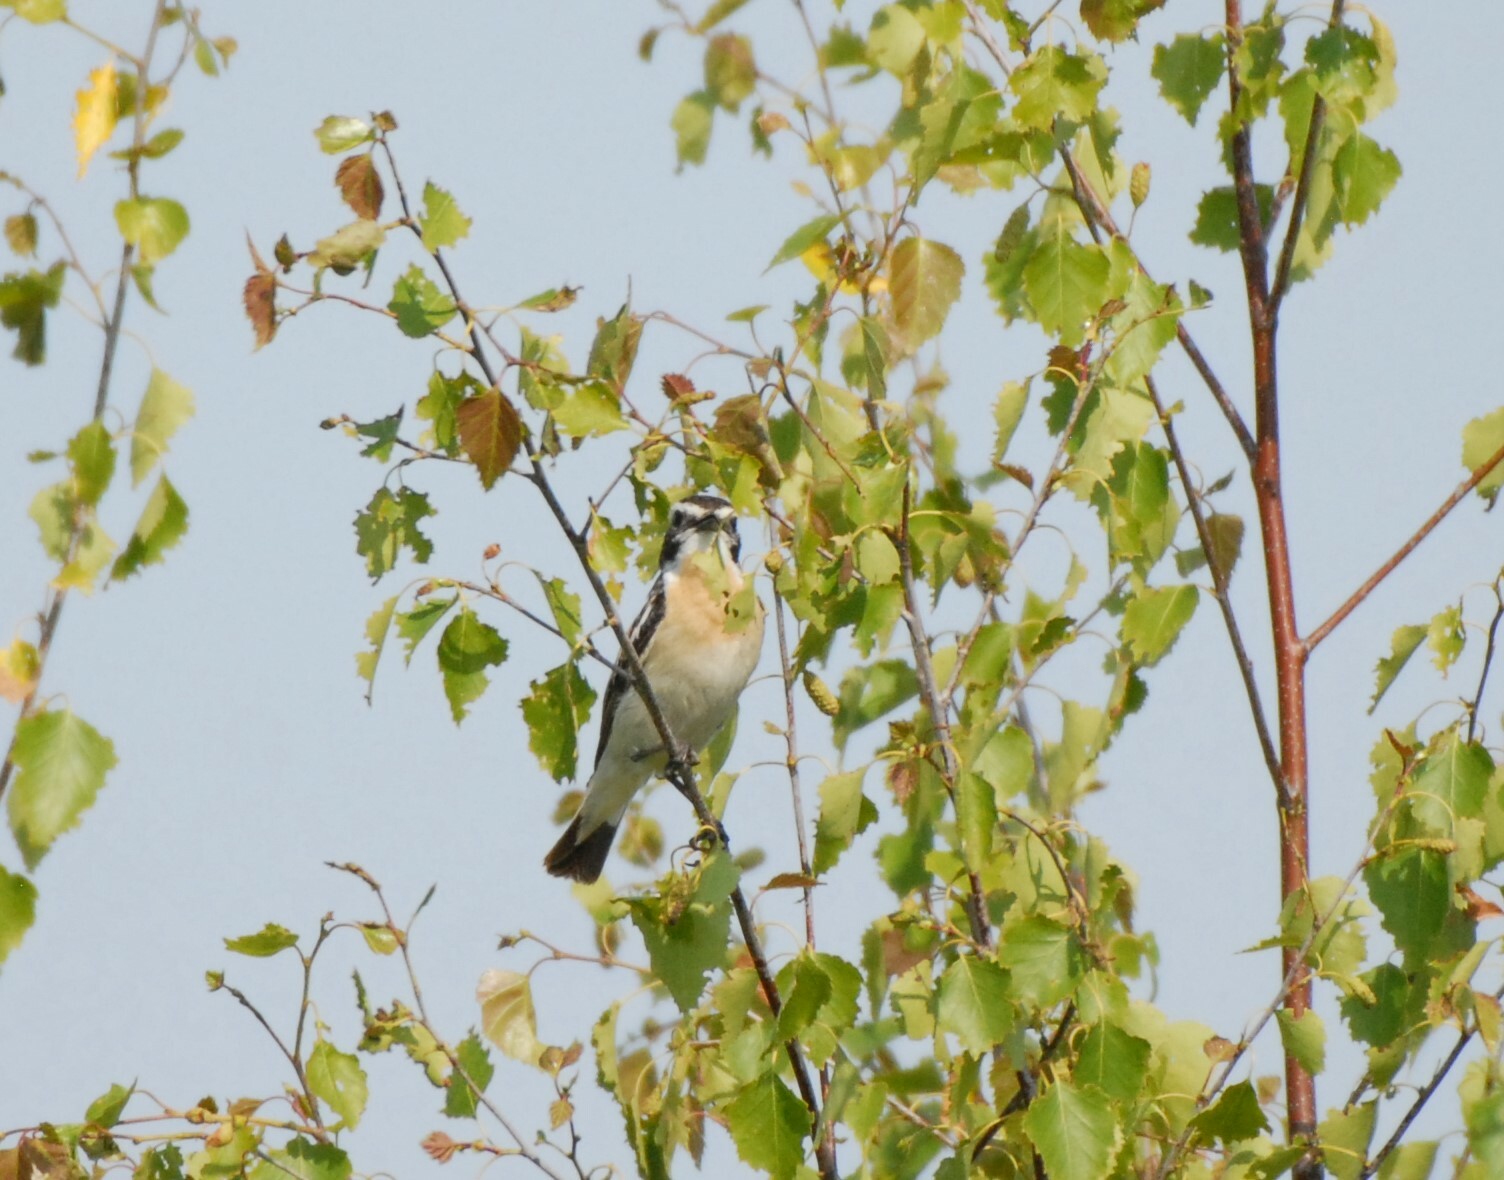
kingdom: Animalia
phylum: Chordata
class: Aves
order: Passeriformes
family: Muscicapidae
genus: Saxicola
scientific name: Saxicola rubetra
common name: Whinchat
